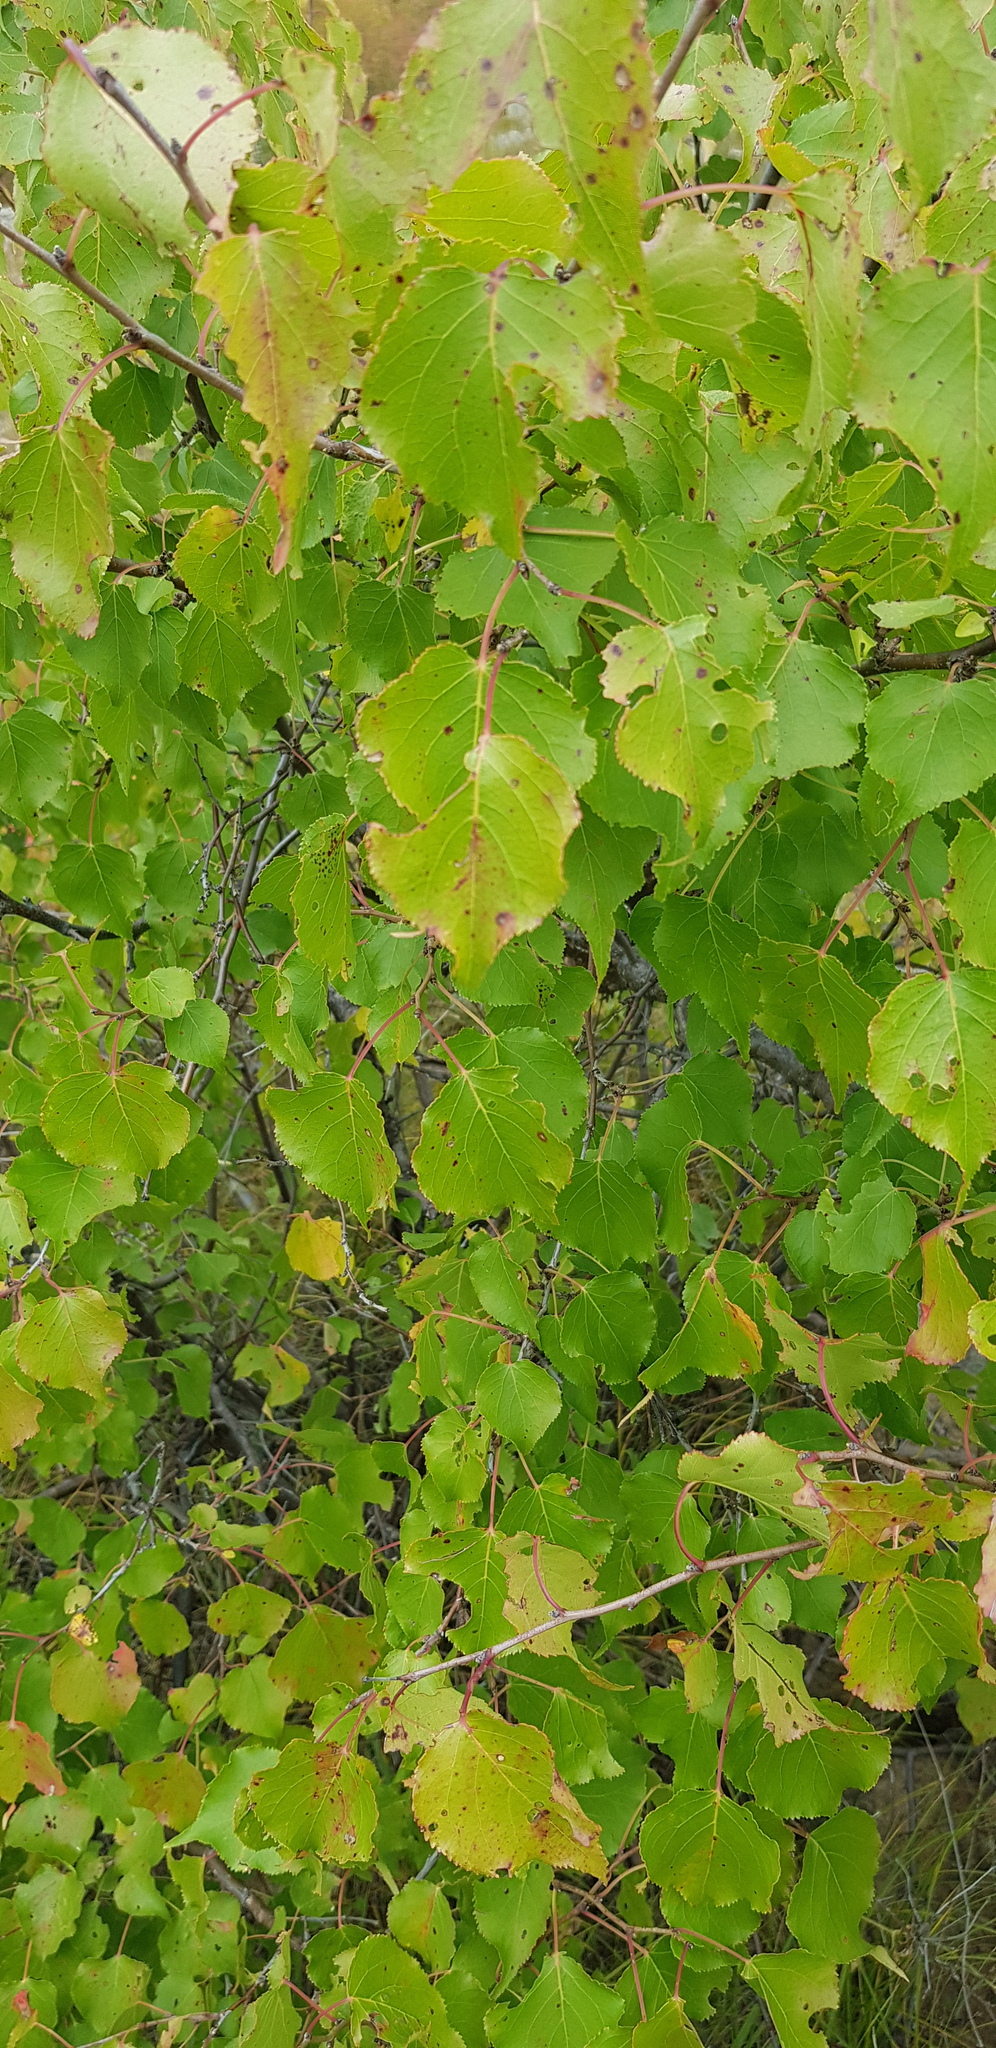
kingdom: Plantae
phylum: Tracheophyta
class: Magnoliopsida
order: Rosales
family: Rosaceae
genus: Prunus
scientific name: Prunus sibirica
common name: Siberian apricot
